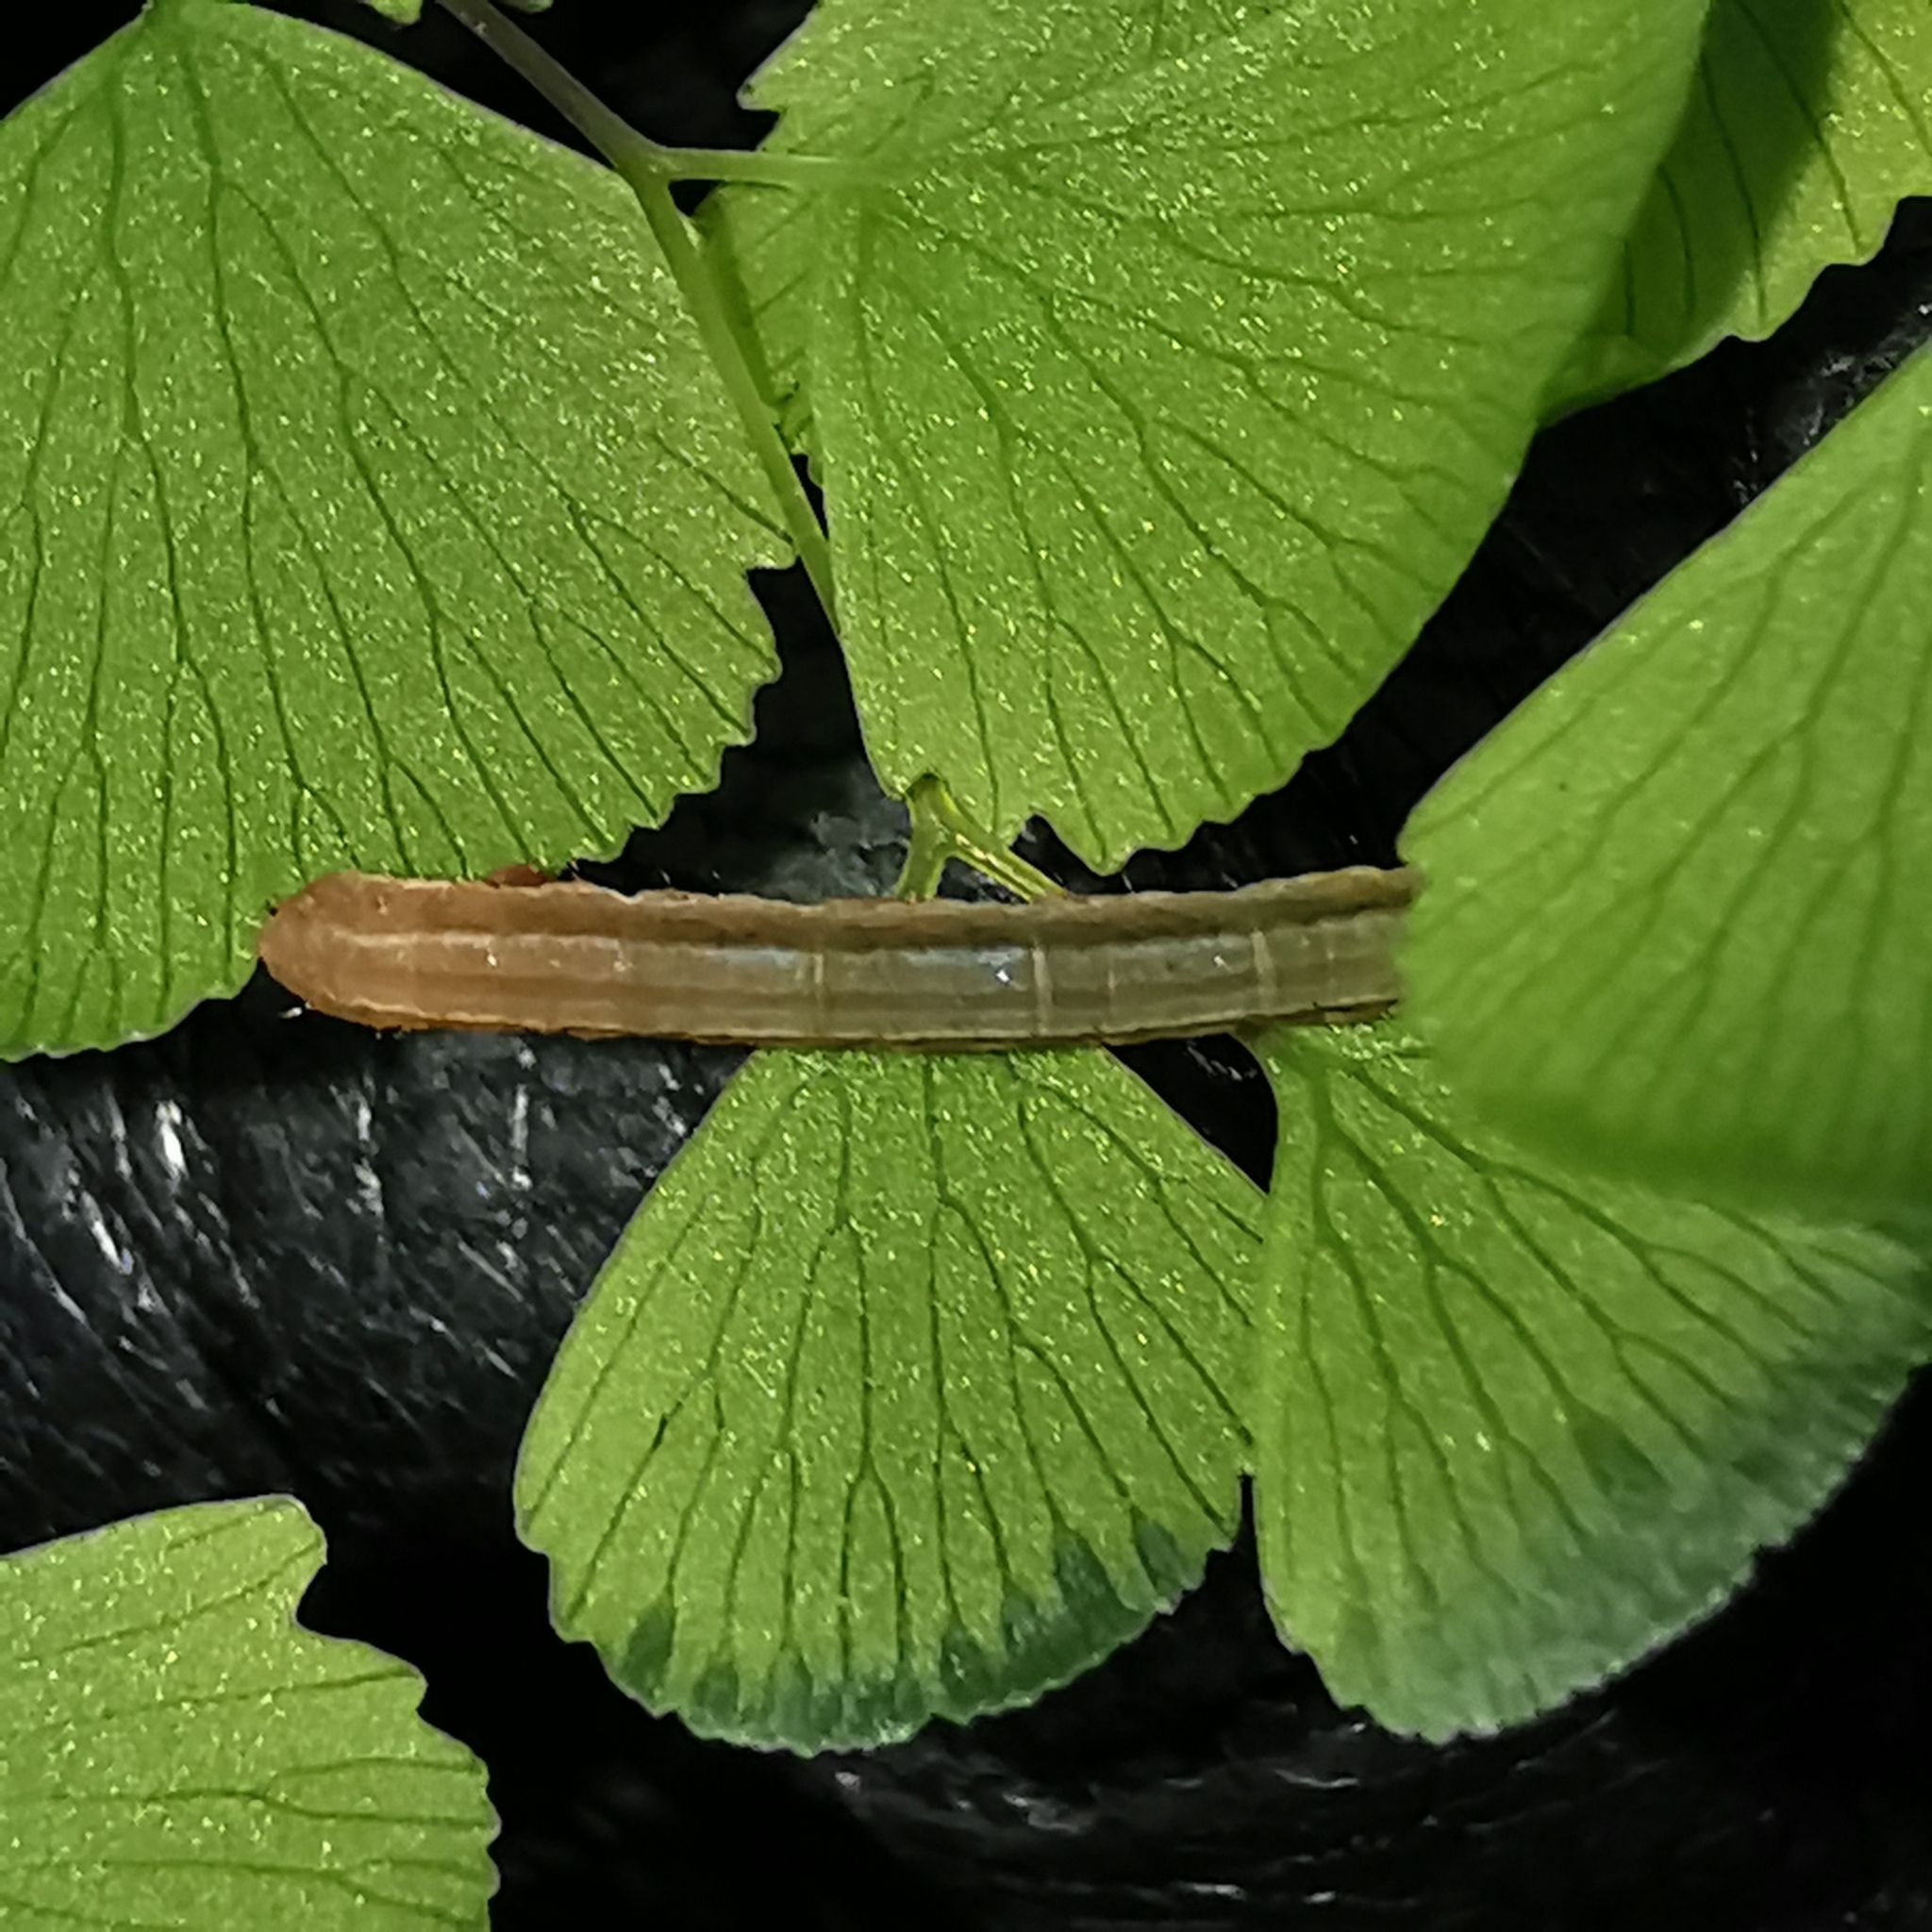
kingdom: Plantae
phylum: Tracheophyta
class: Polypodiopsida
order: Polypodiales
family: Pteridaceae
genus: Adiantum
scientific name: Adiantum capillus-veneris
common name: Maidenhair fern
